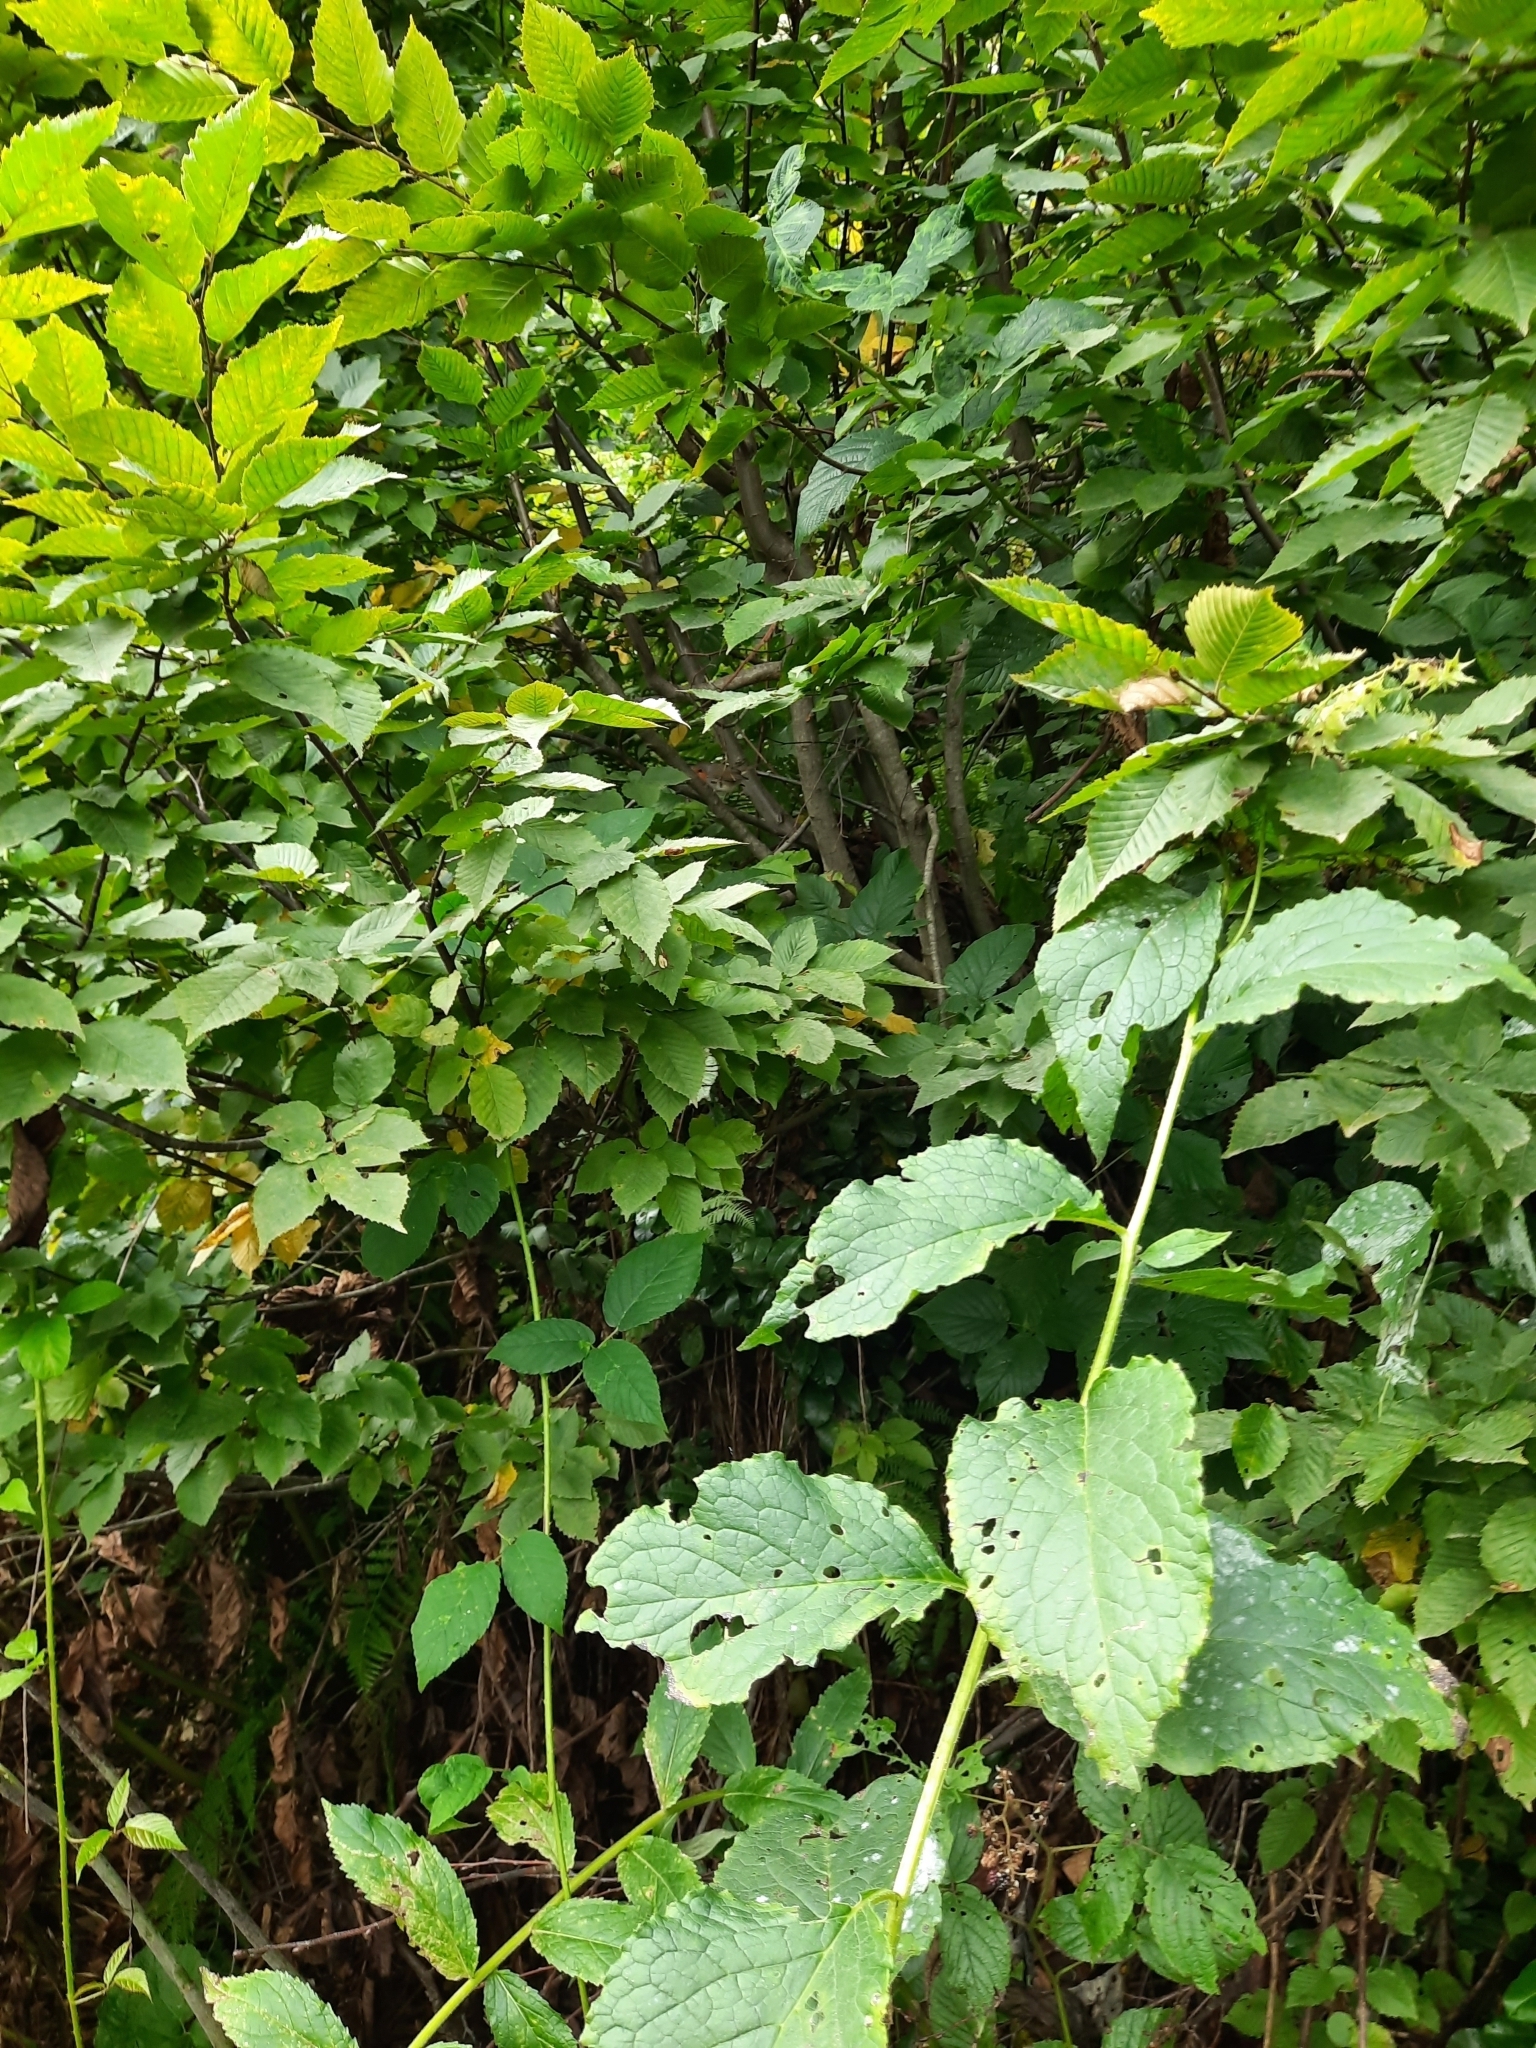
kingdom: Animalia
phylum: Chordata
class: Aves
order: Passeriformes
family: Muscicapidae
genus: Erithacus
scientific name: Erithacus rubecula
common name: European robin
